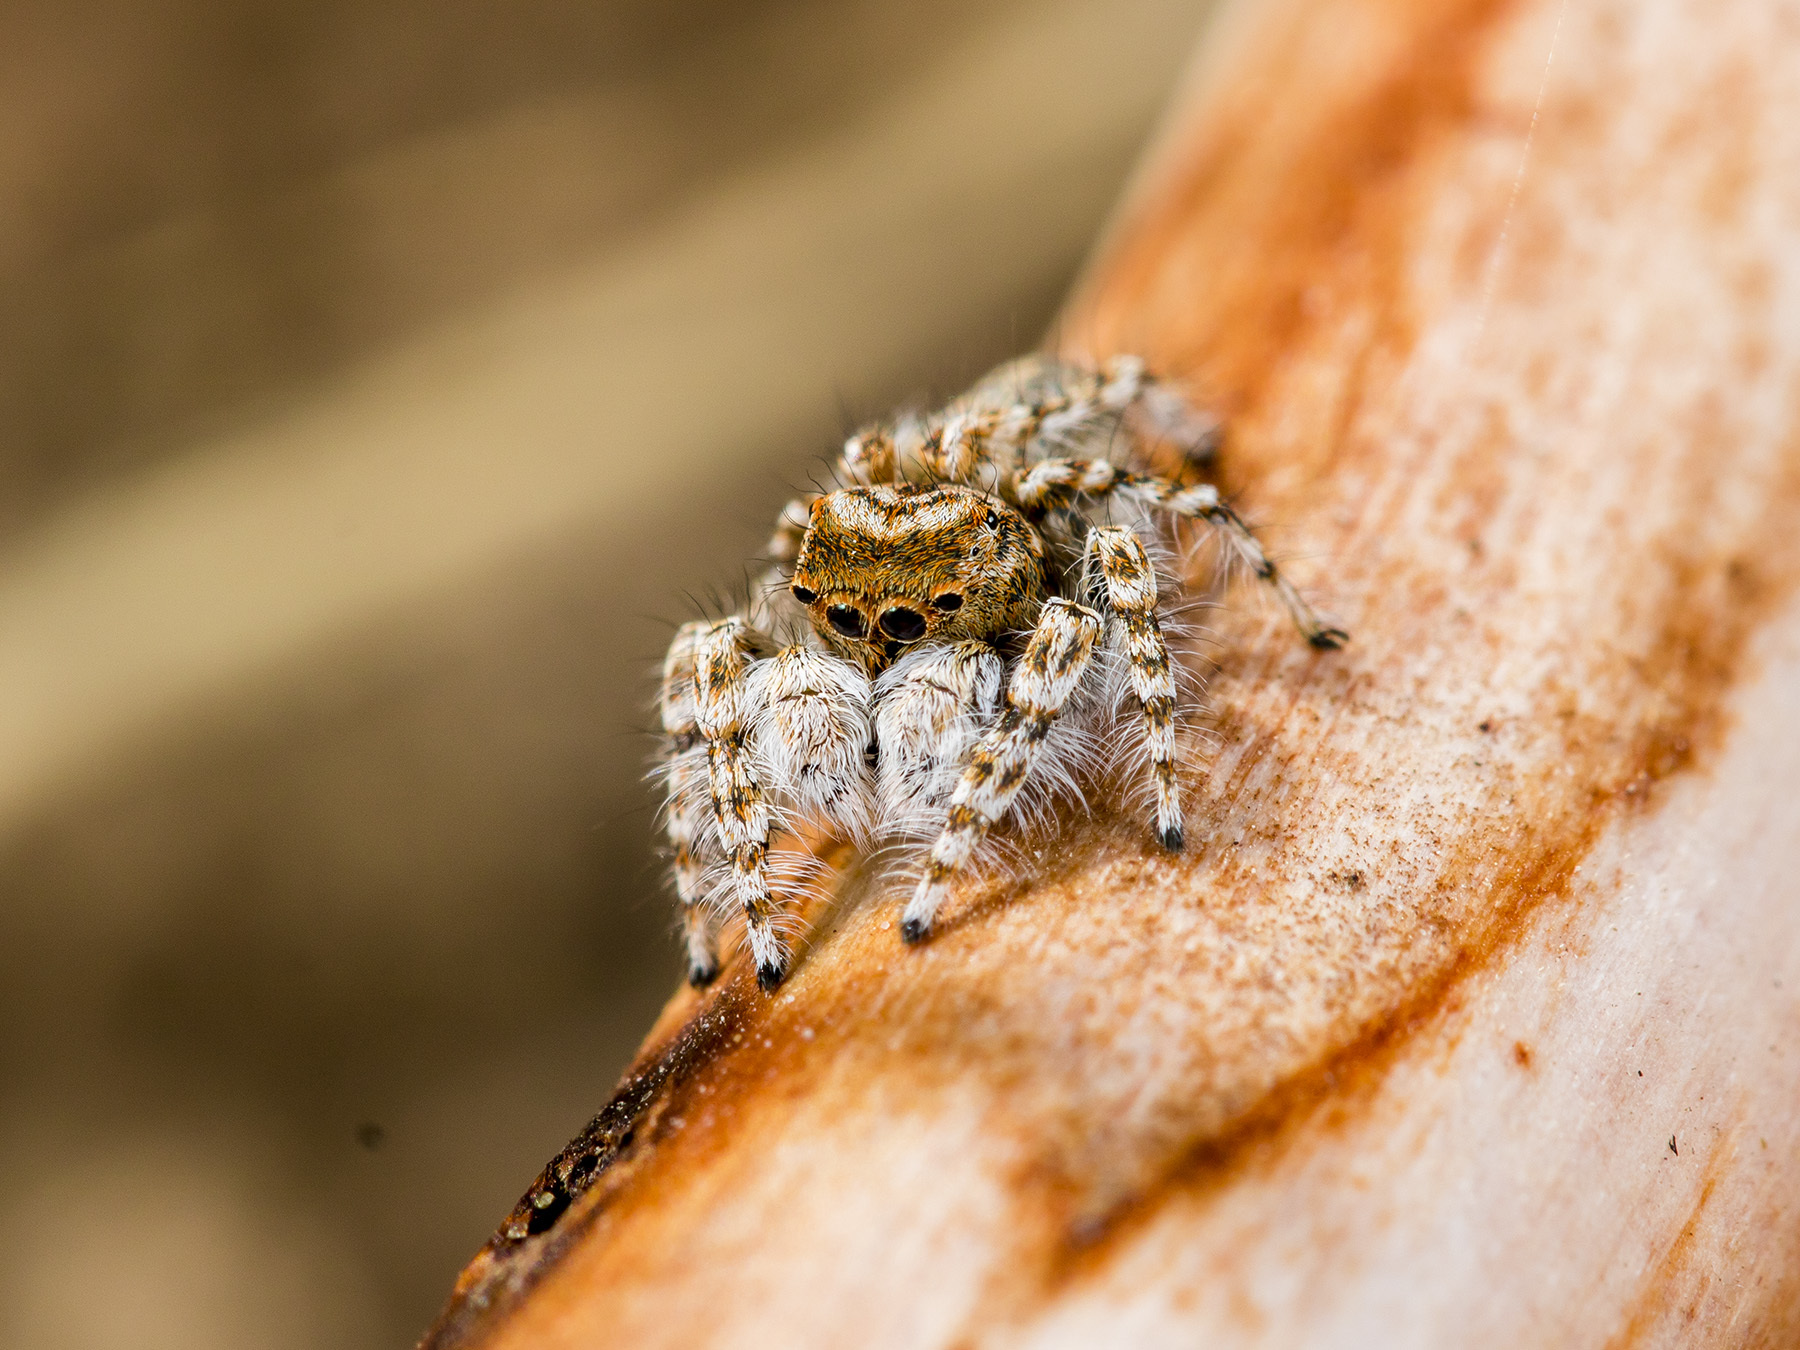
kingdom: Animalia
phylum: Arthropoda
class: Arachnida
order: Araneae
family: Salticidae
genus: Yllenus
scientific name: Yllenus uiguricus
